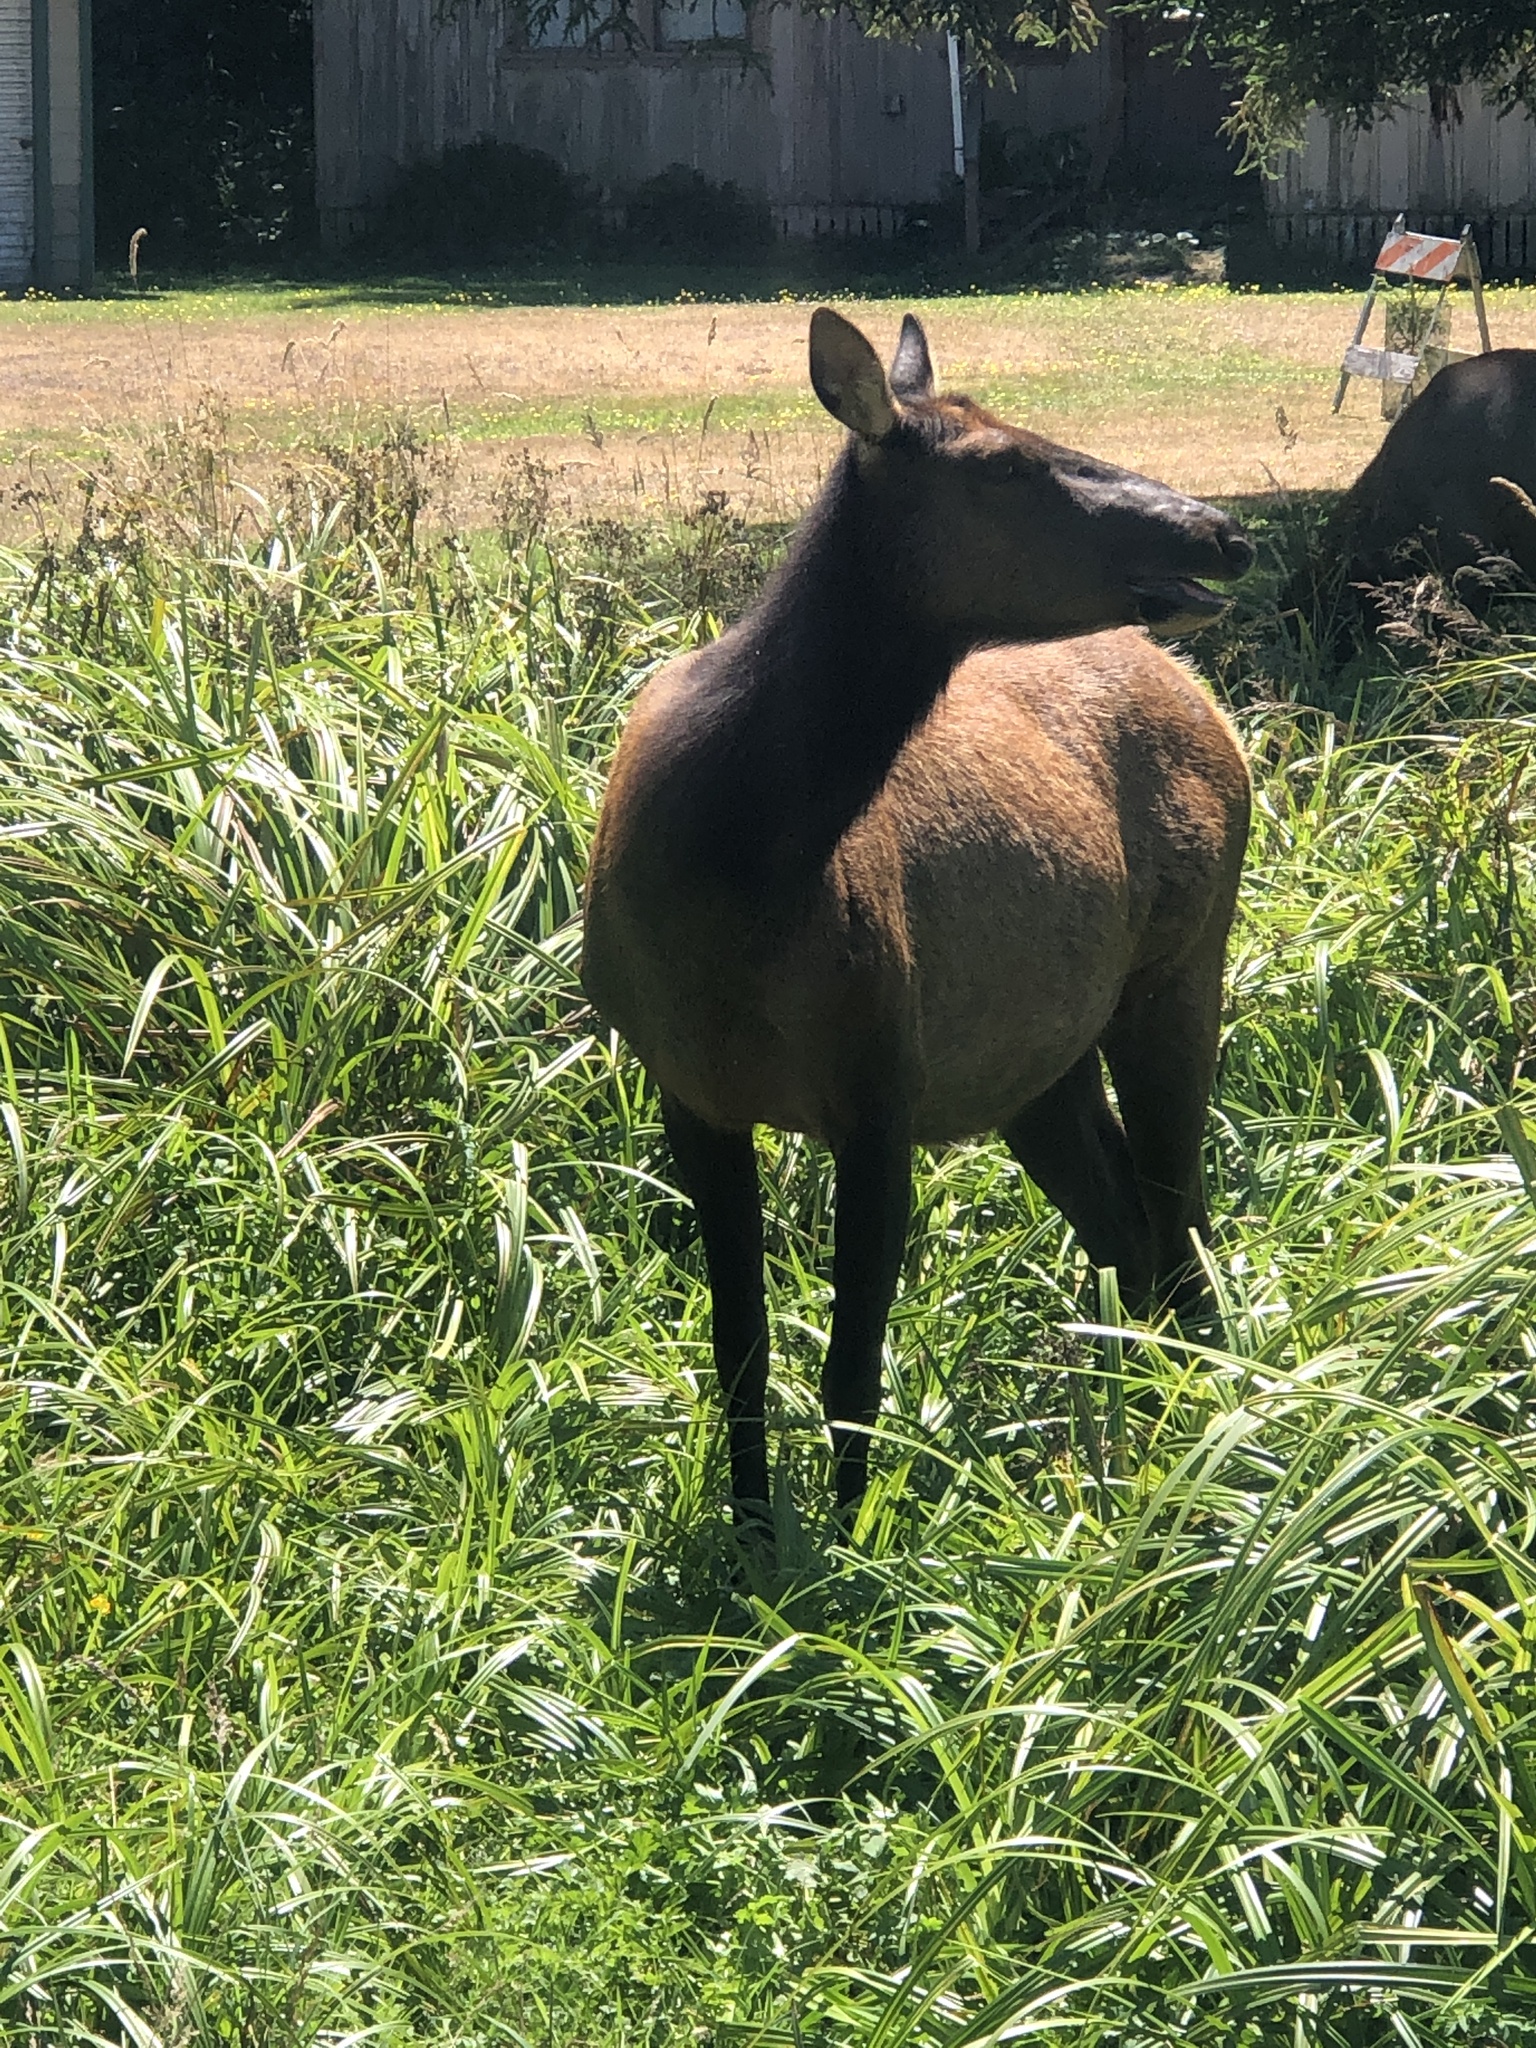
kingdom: Animalia
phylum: Chordata
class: Mammalia
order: Artiodactyla
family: Cervidae
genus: Cervus
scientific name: Cervus elaphus
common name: Red deer
